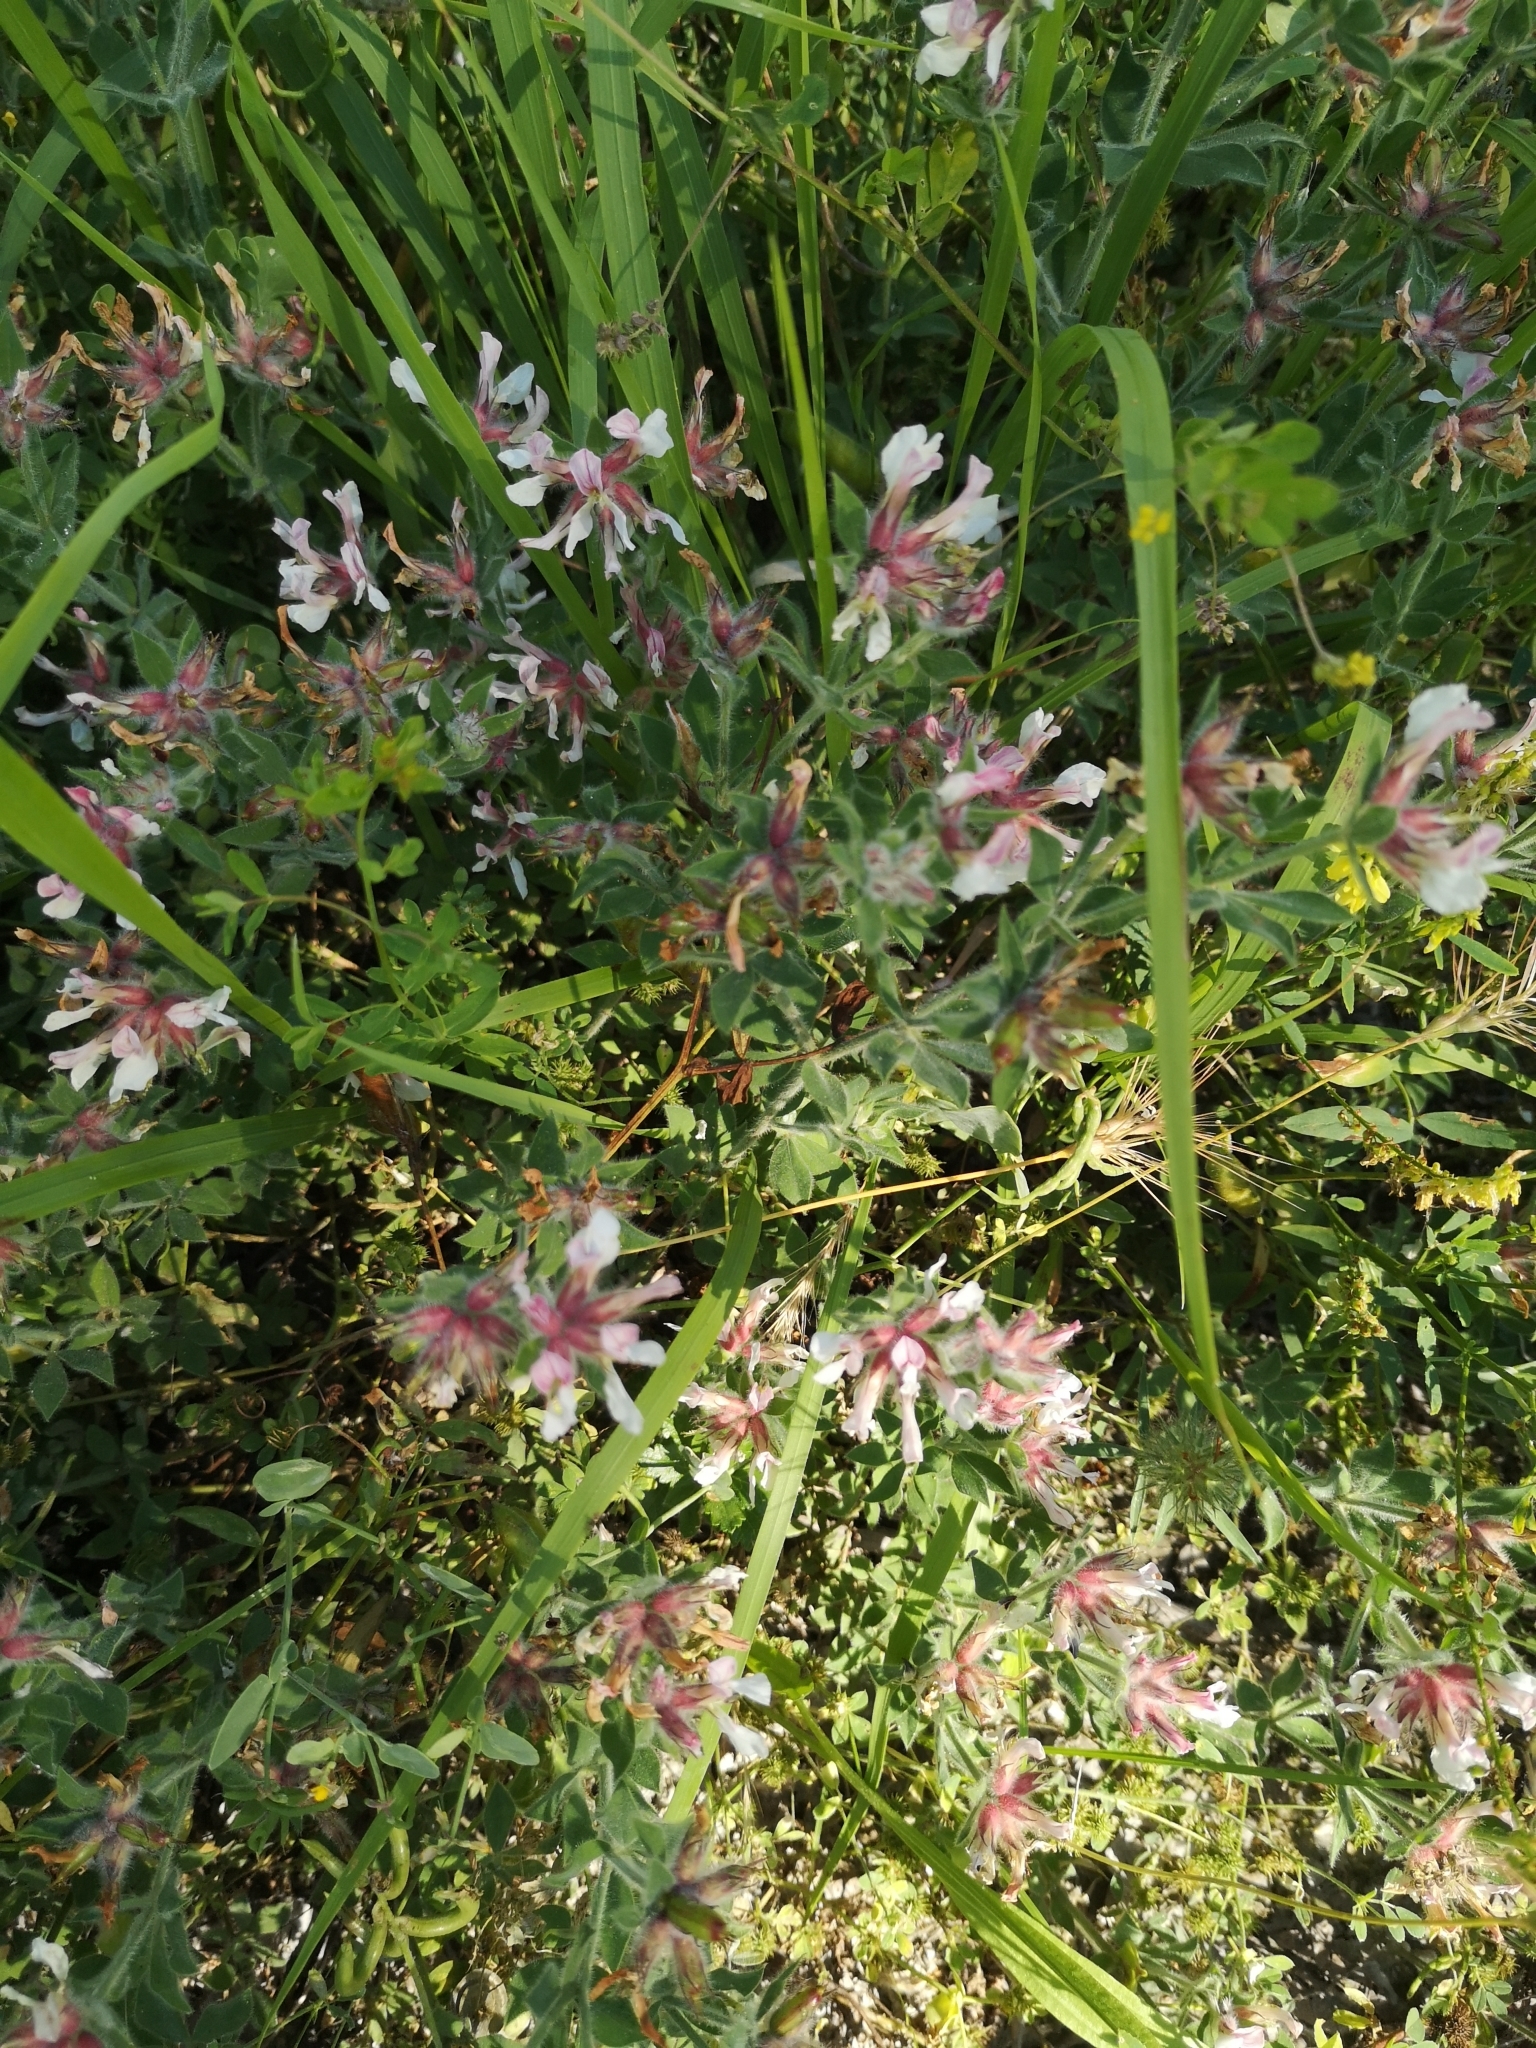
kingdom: Plantae
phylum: Tracheophyta
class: Magnoliopsida
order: Fabales
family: Fabaceae
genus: Lotus
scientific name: Lotus hirsutus
